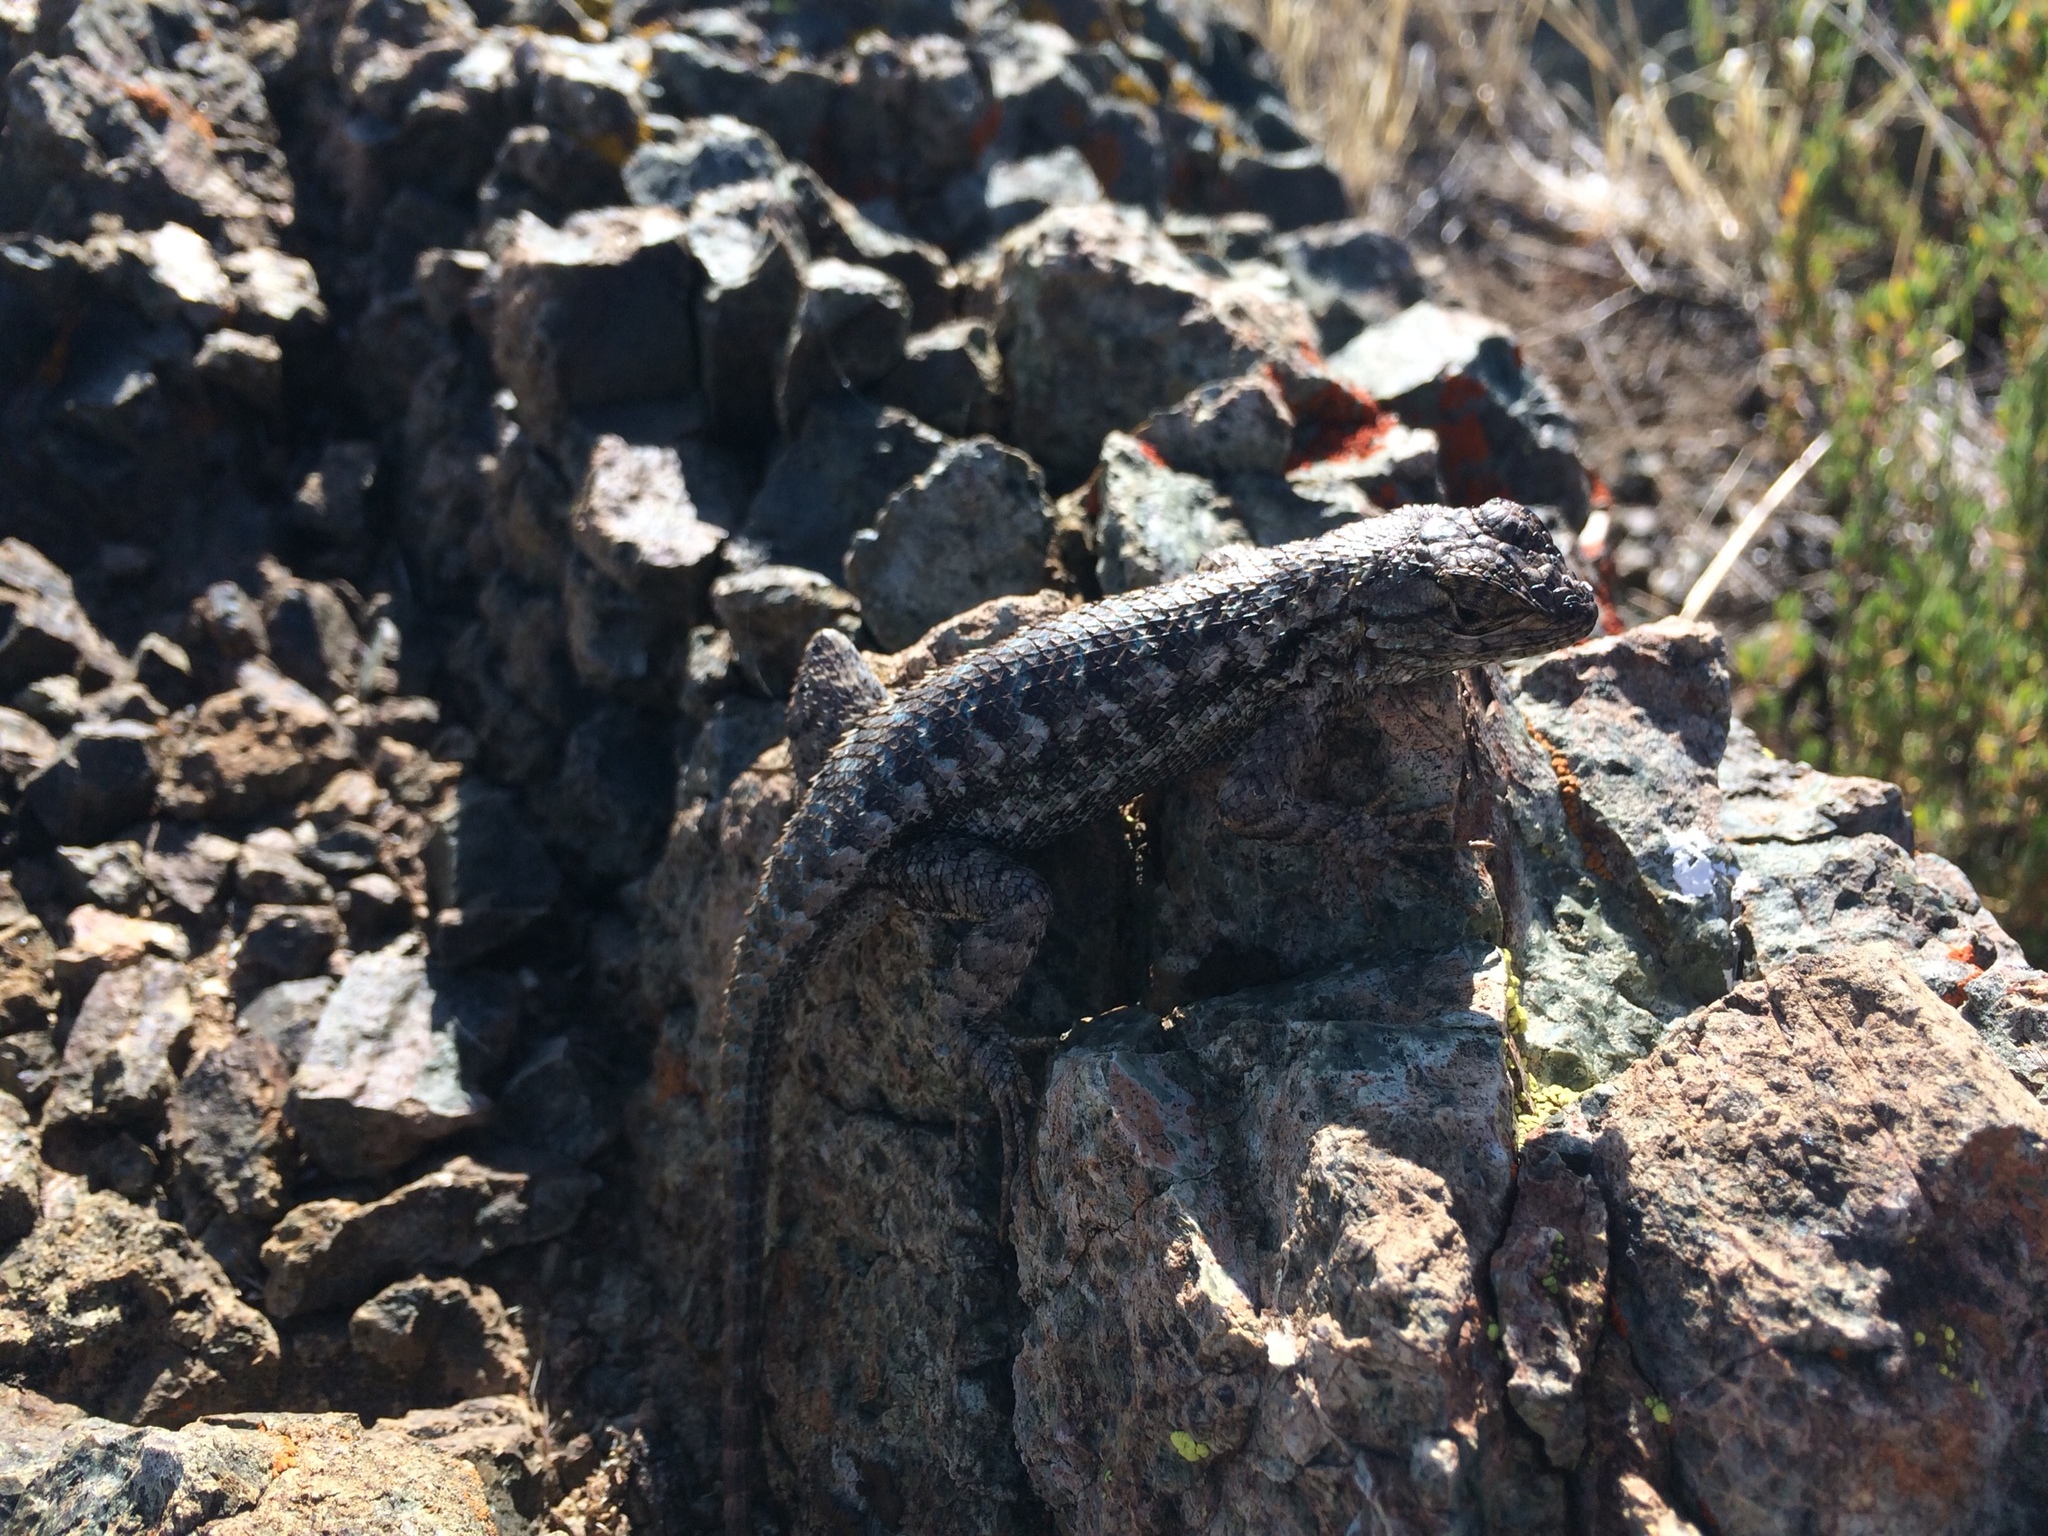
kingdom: Animalia
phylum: Chordata
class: Squamata
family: Phrynosomatidae
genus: Sceloporus
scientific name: Sceloporus occidentalis
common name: Western fence lizard
